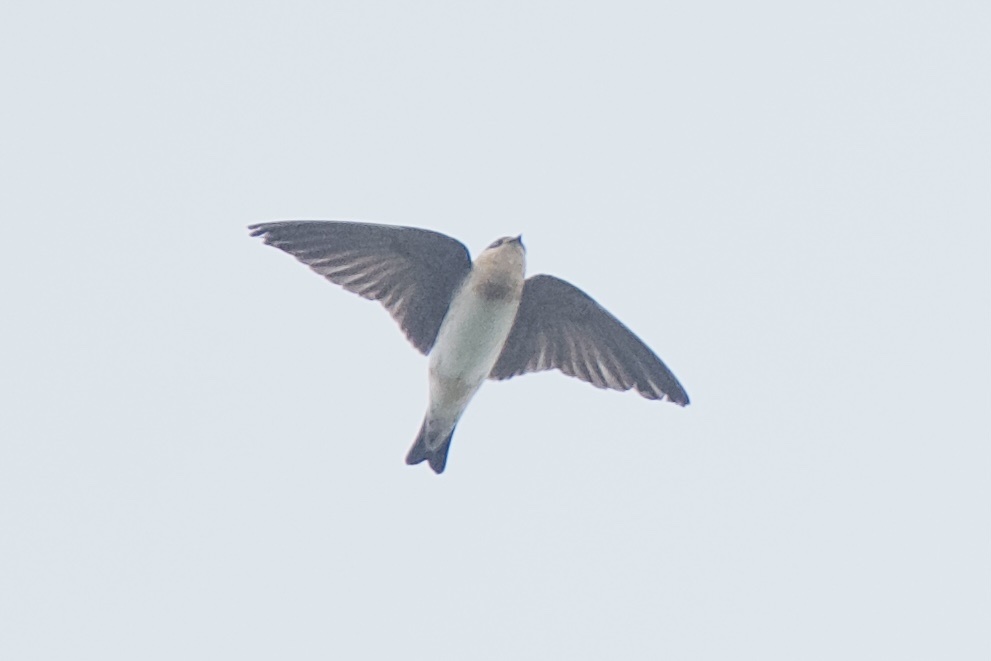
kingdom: Animalia
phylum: Chordata
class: Aves
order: Passeriformes
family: Hirundinidae
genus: Petrochelidon
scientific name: Petrochelidon fulva
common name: Cave swallow
